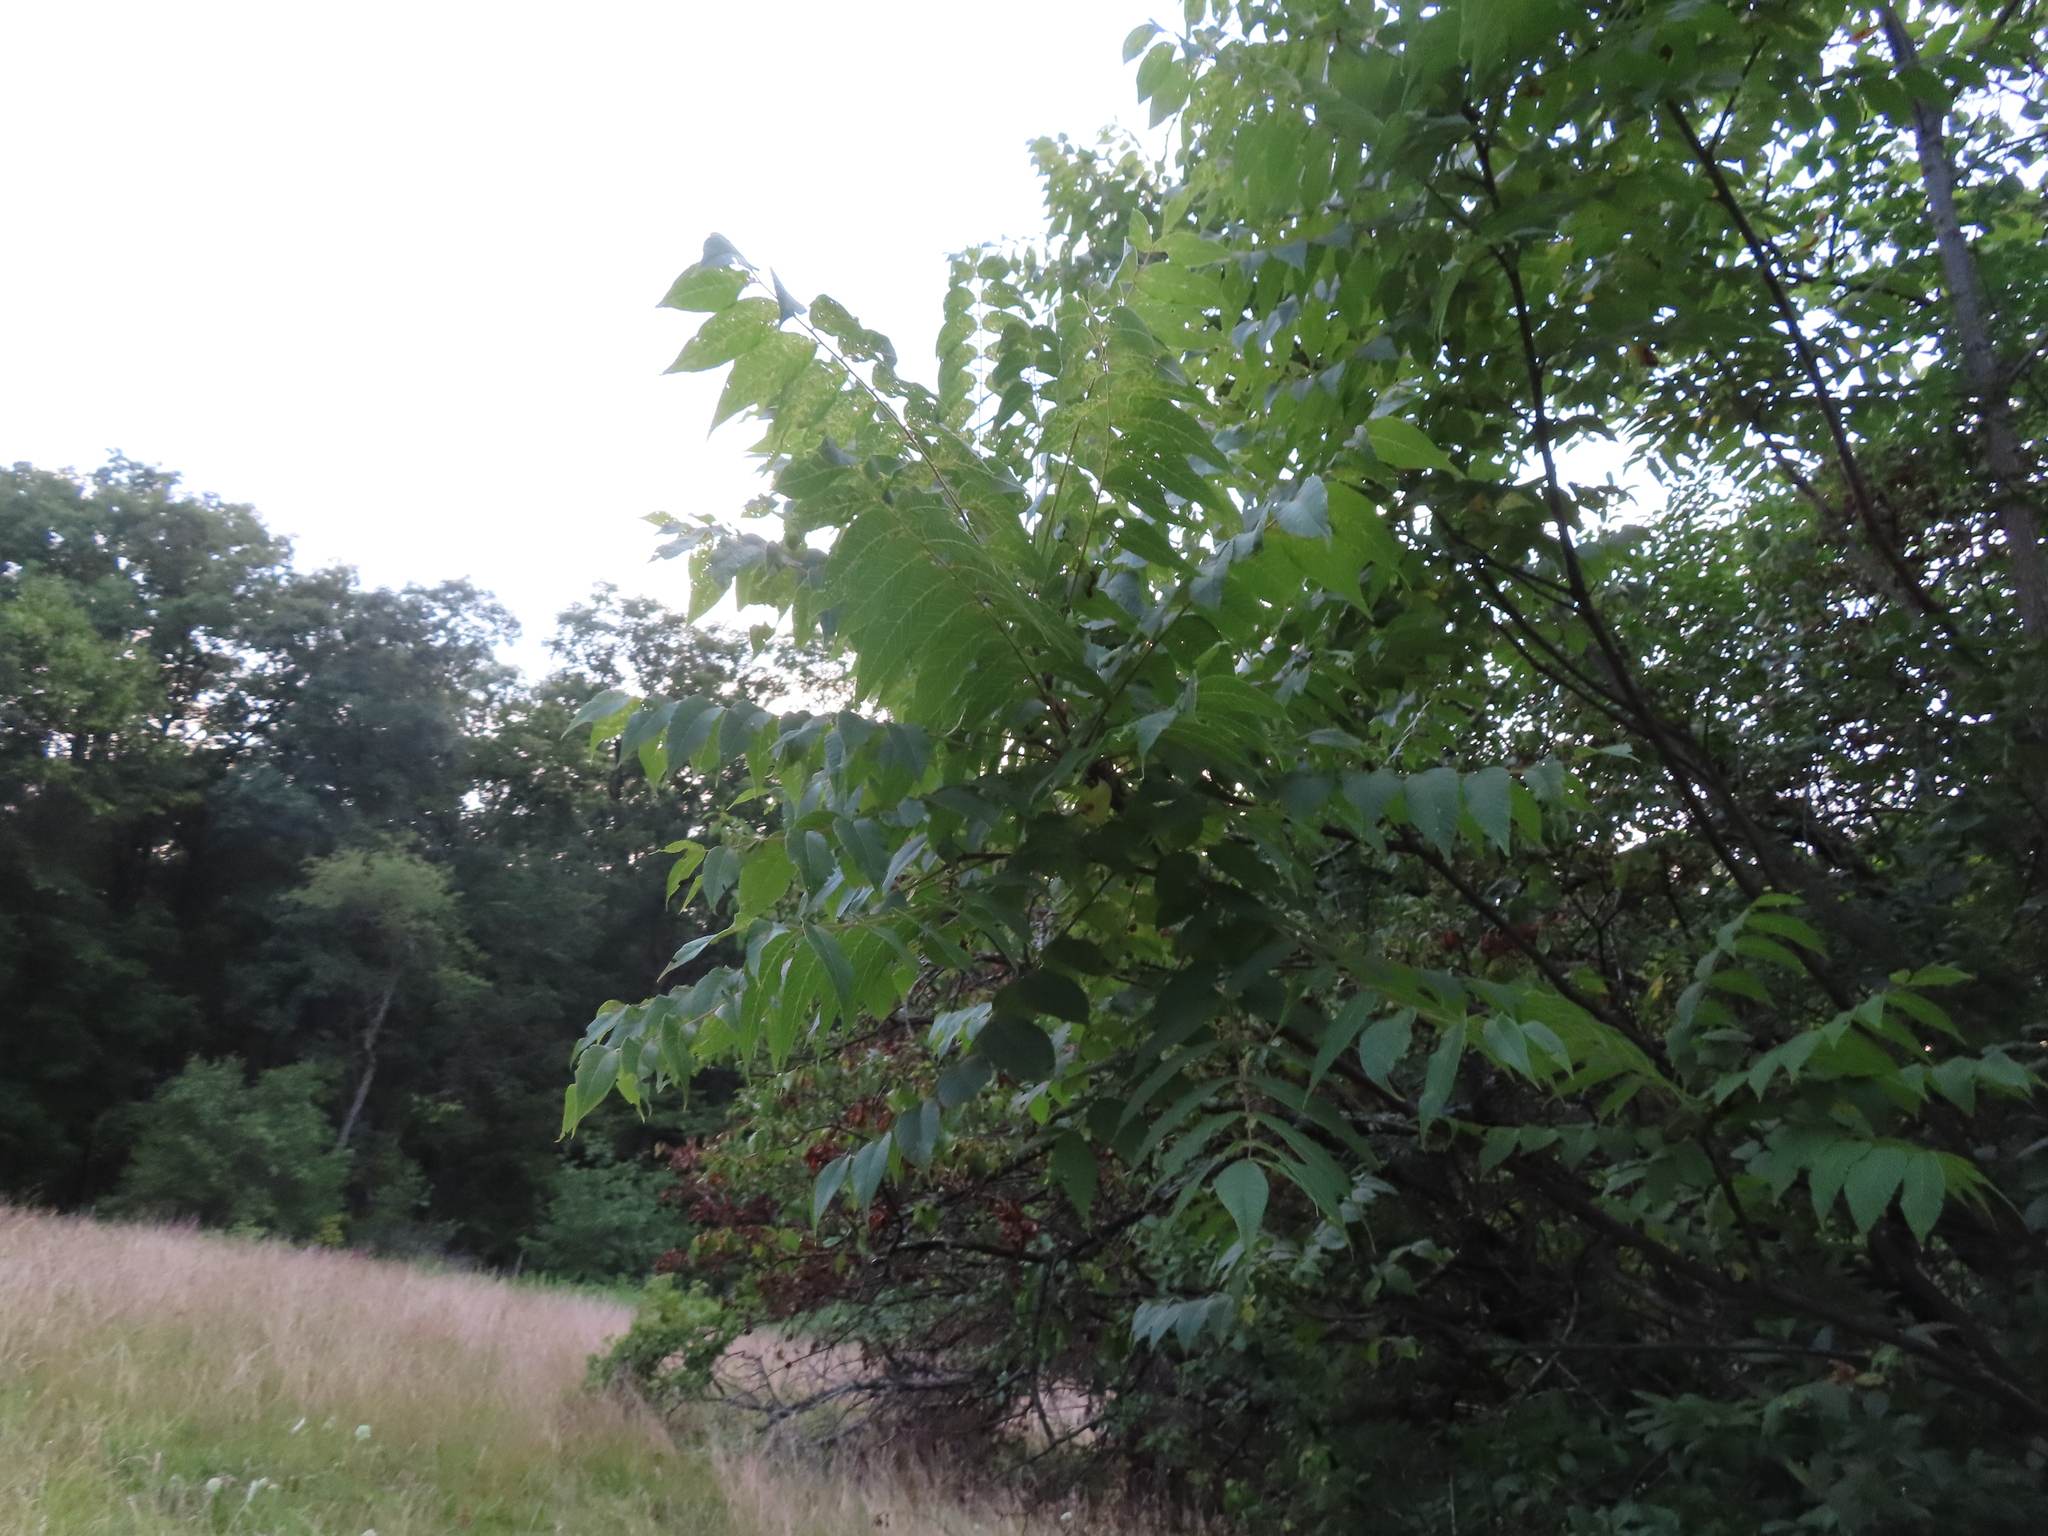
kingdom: Plantae
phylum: Tracheophyta
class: Magnoliopsida
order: Fagales
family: Juglandaceae
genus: Juglans
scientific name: Juglans nigra
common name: Black walnut
